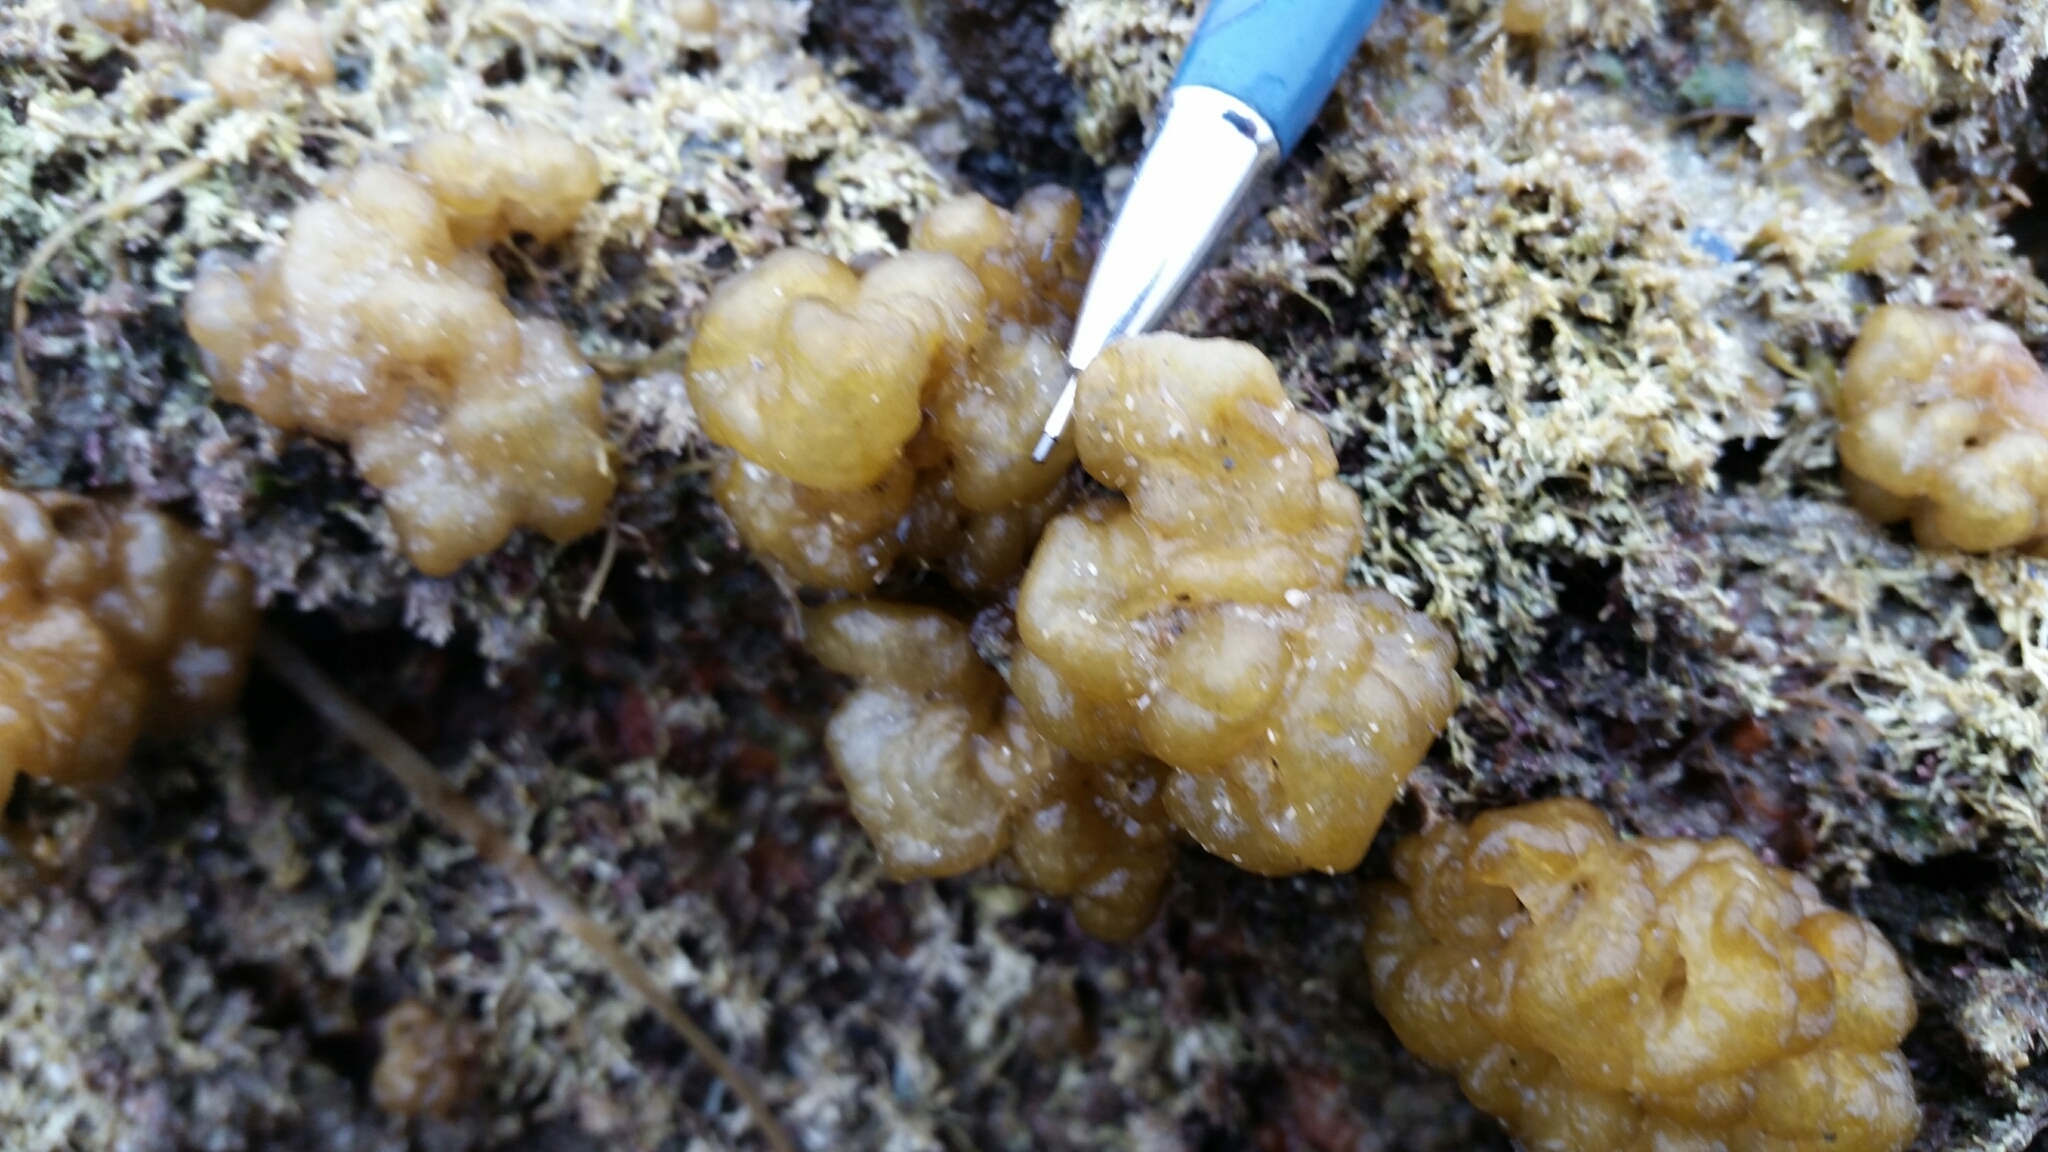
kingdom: Chromista
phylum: Ochrophyta
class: Phaeophyceae
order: Ectocarpales
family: Chordariaceae
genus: Leathesia
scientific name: Leathesia marina
